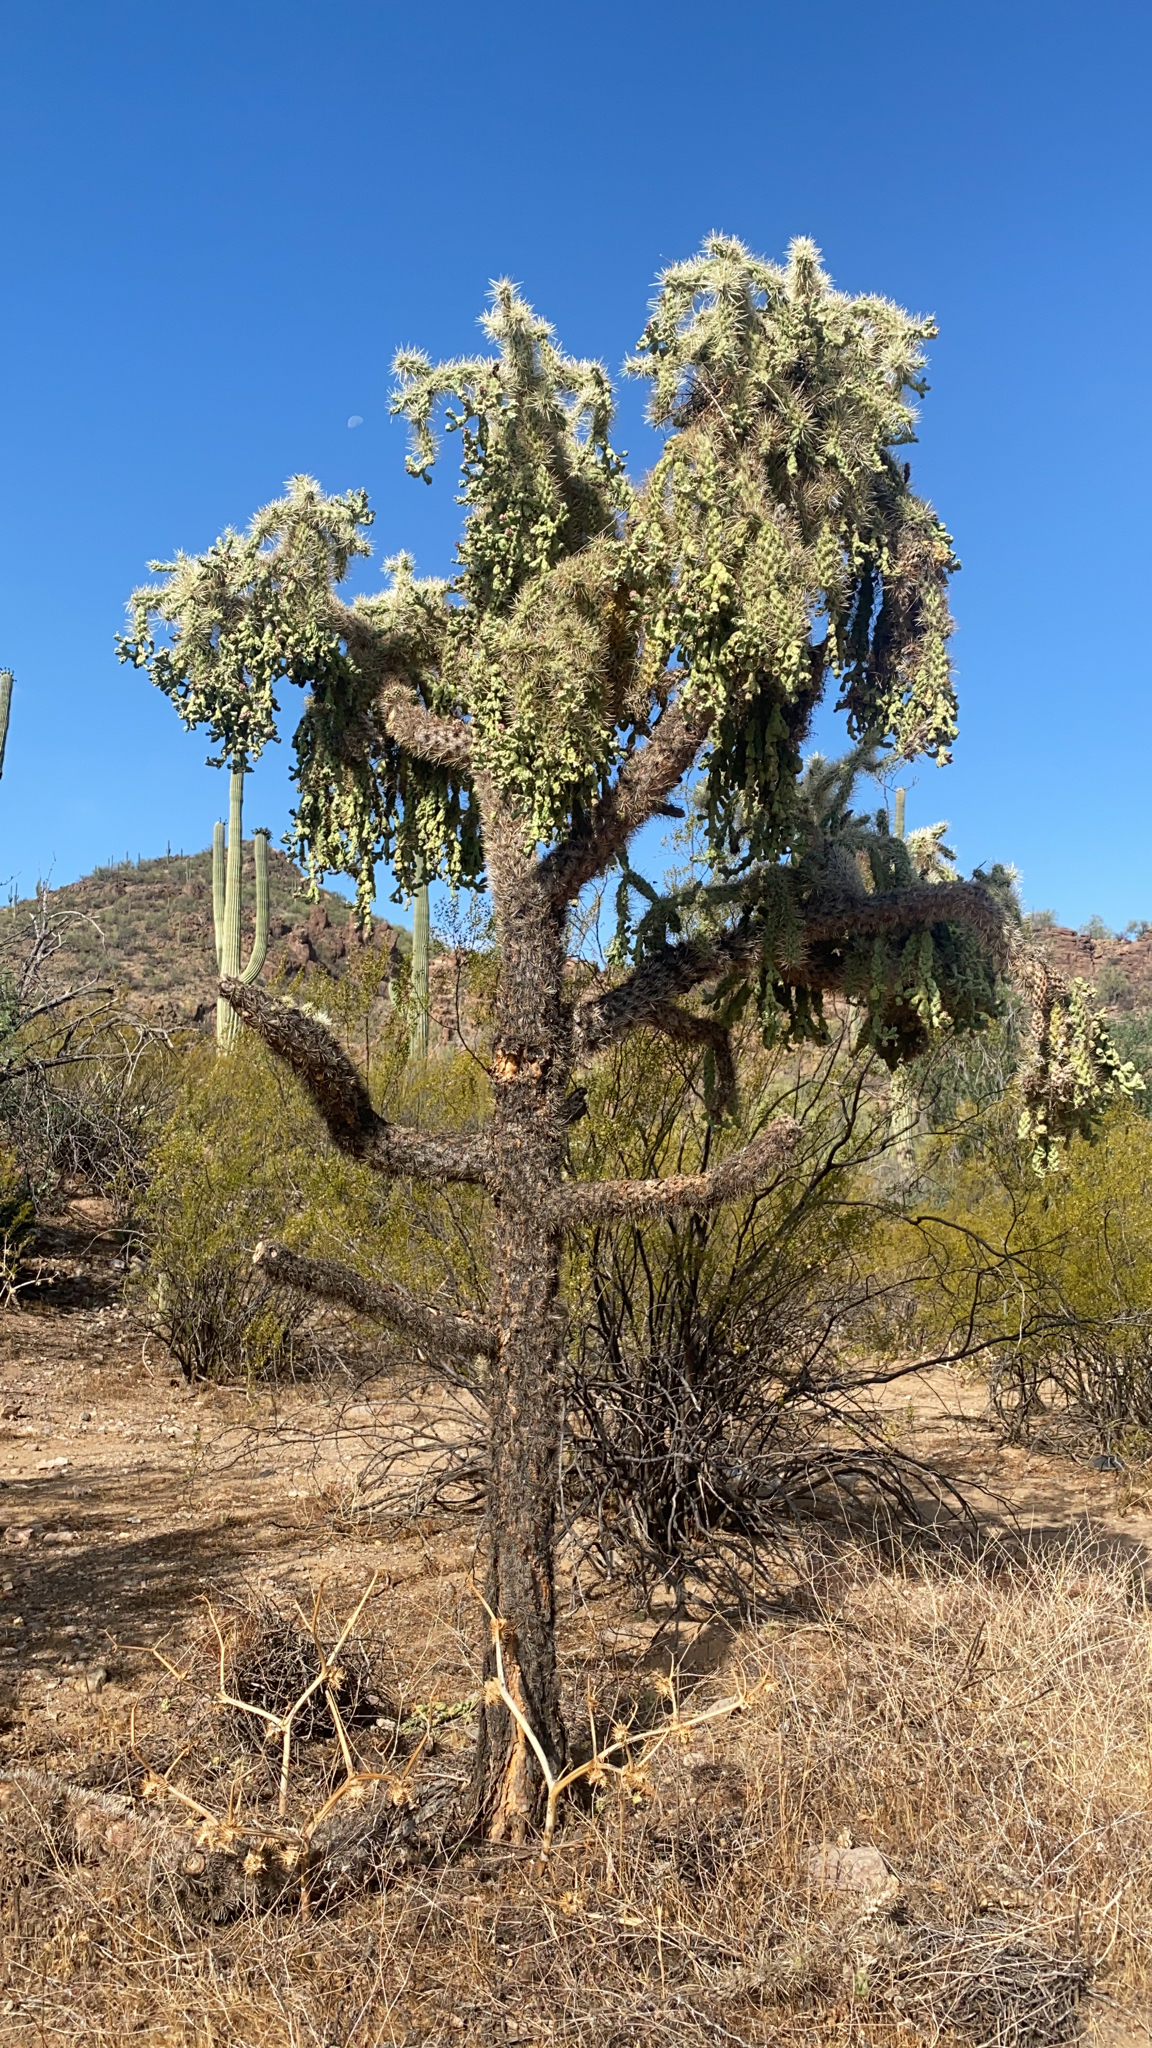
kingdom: Plantae
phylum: Tracheophyta
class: Magnoliopsida
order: Caryophyllales
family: Cactaceae
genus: Cylindropuntia
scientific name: Cylindropuntia fulgida
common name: Jumping cholla
